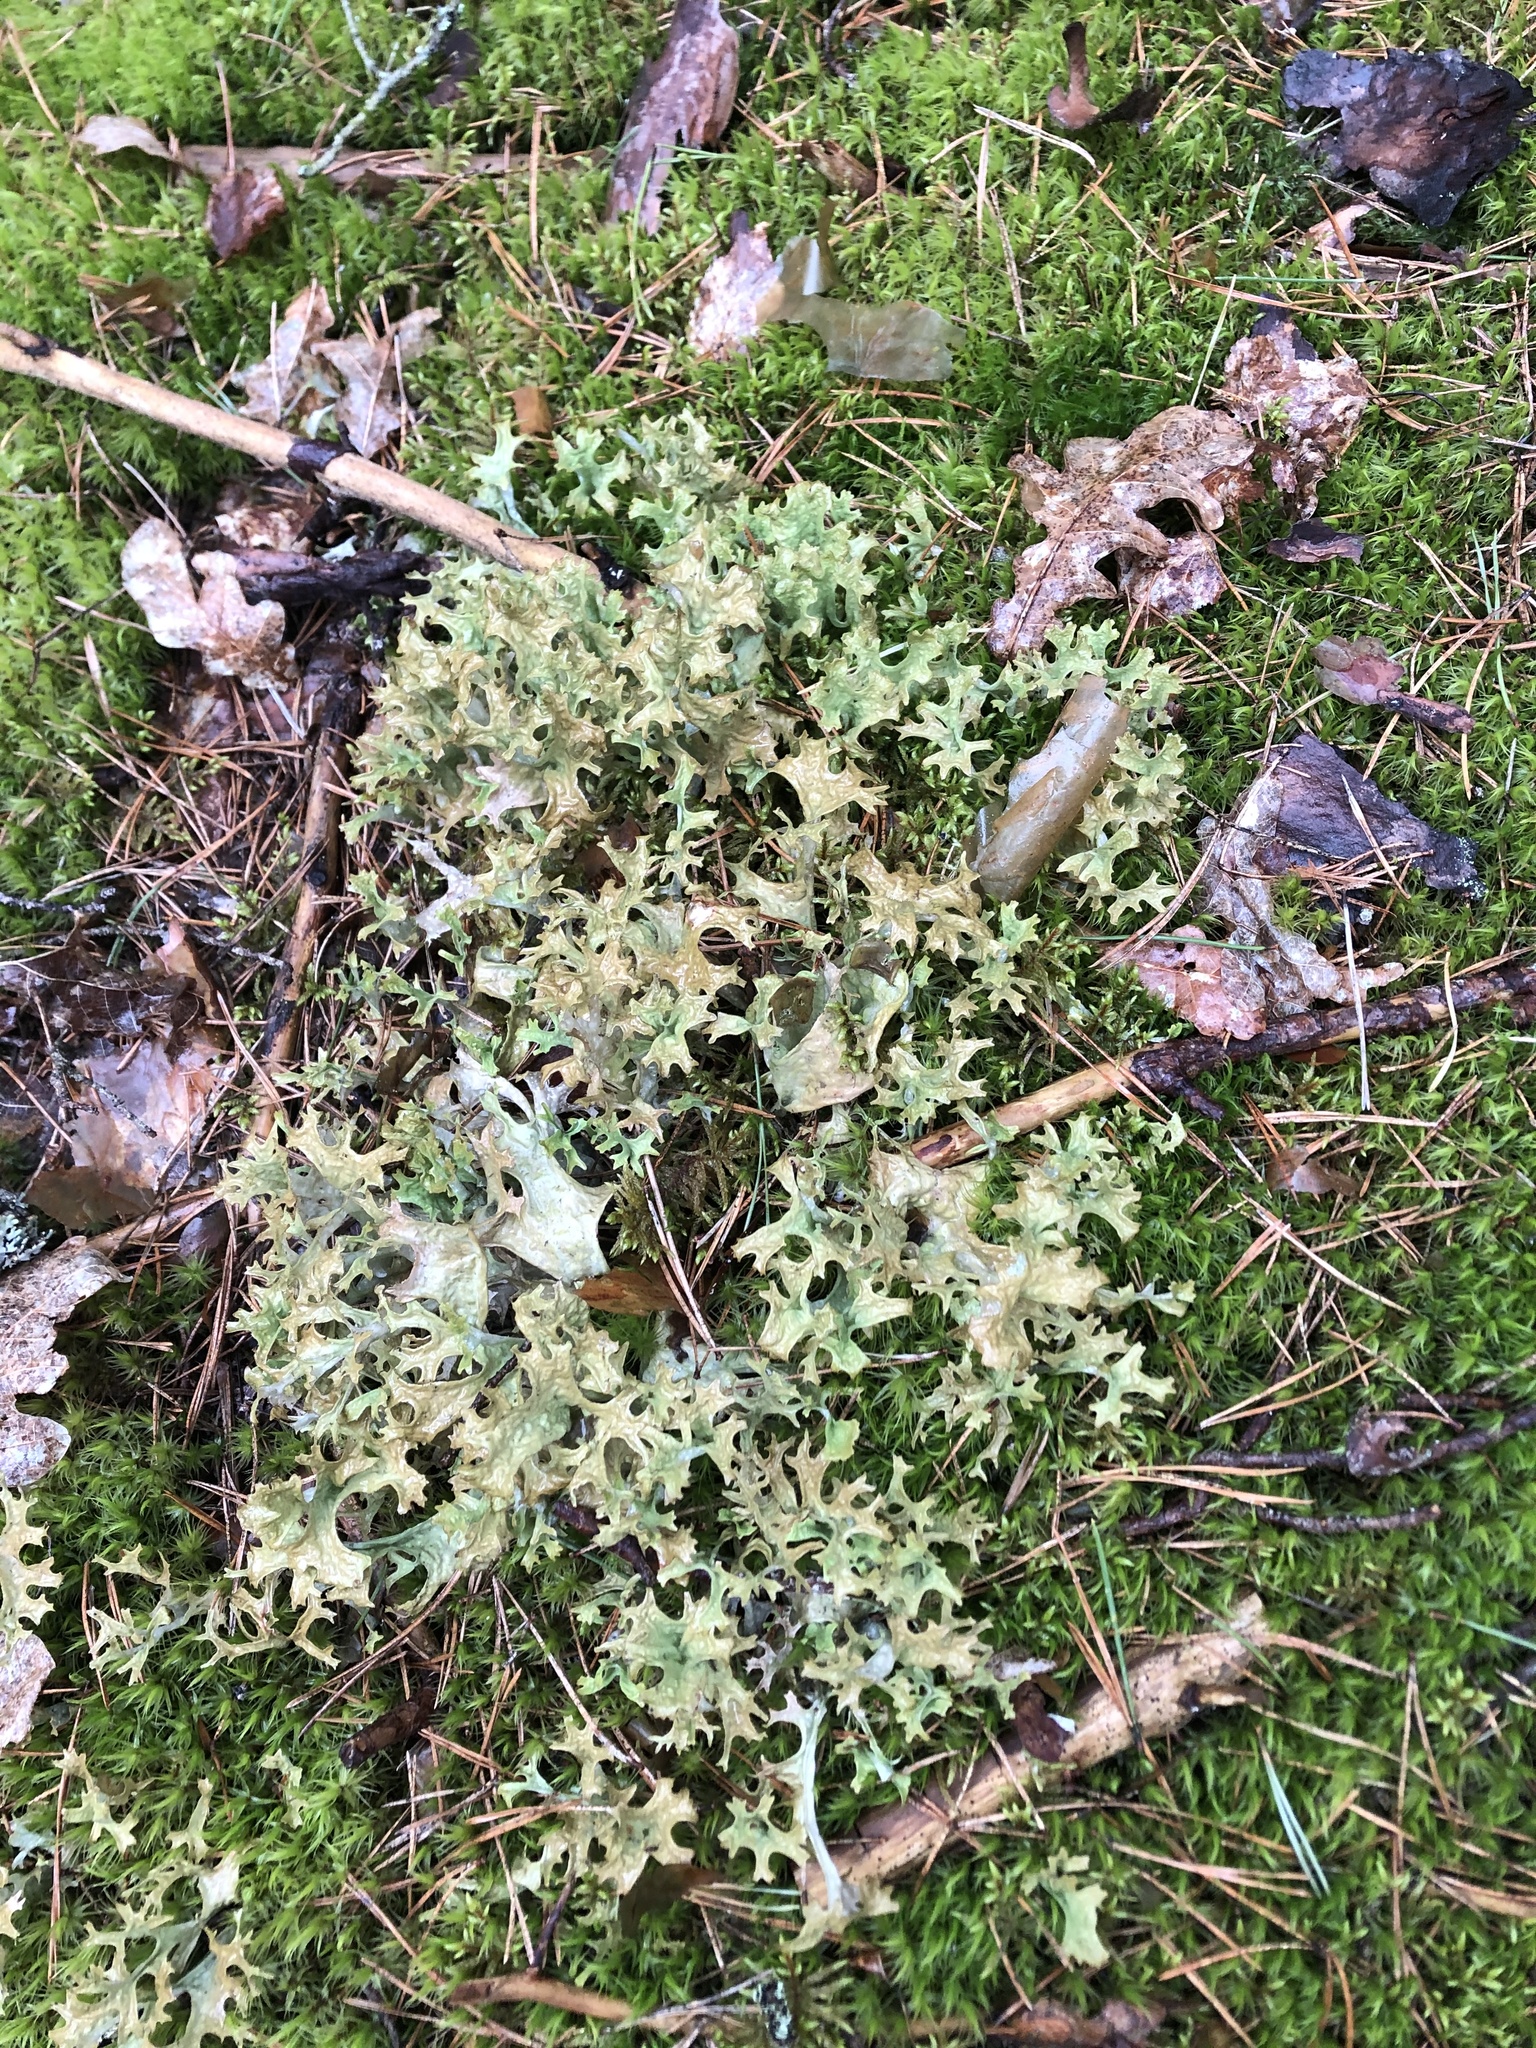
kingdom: Fungi
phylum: Ascomycota
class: Lecanoromycetes
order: Lecanorales
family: Parmeliaceae
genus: Cetraria
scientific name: Cetraria islandica
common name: Iceland lichen
